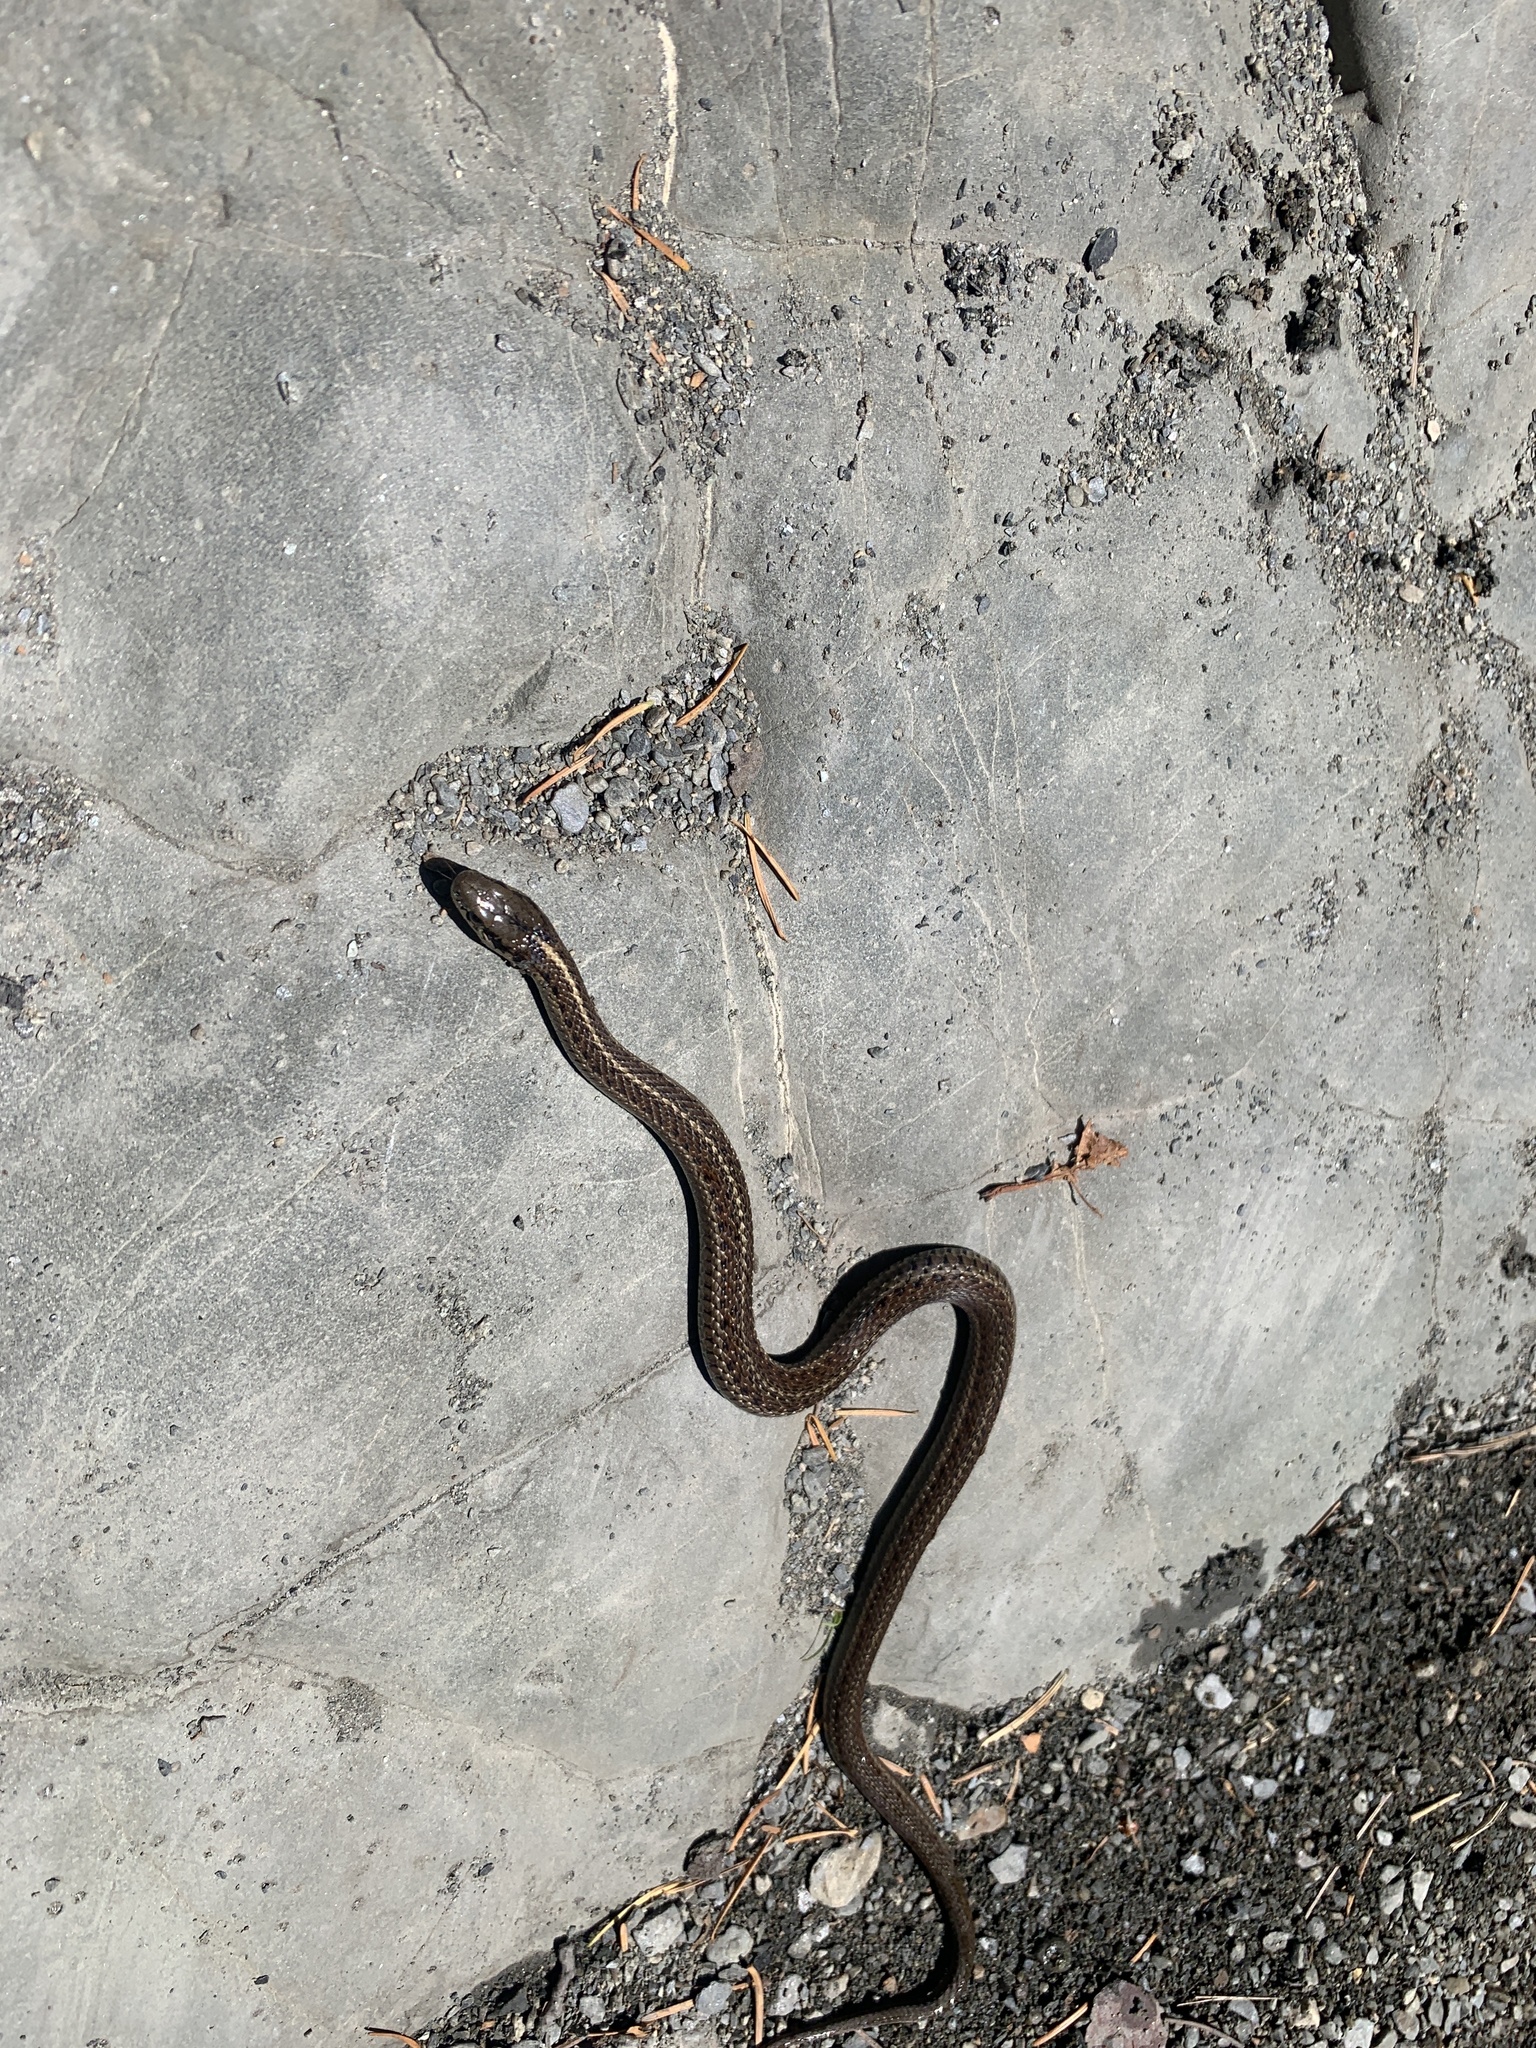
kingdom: Animalia
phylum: Chordata
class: Squamata
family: Colubridae
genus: Thamnophis
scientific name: Thamnophis ordinoides
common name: Northwestern garter snake
